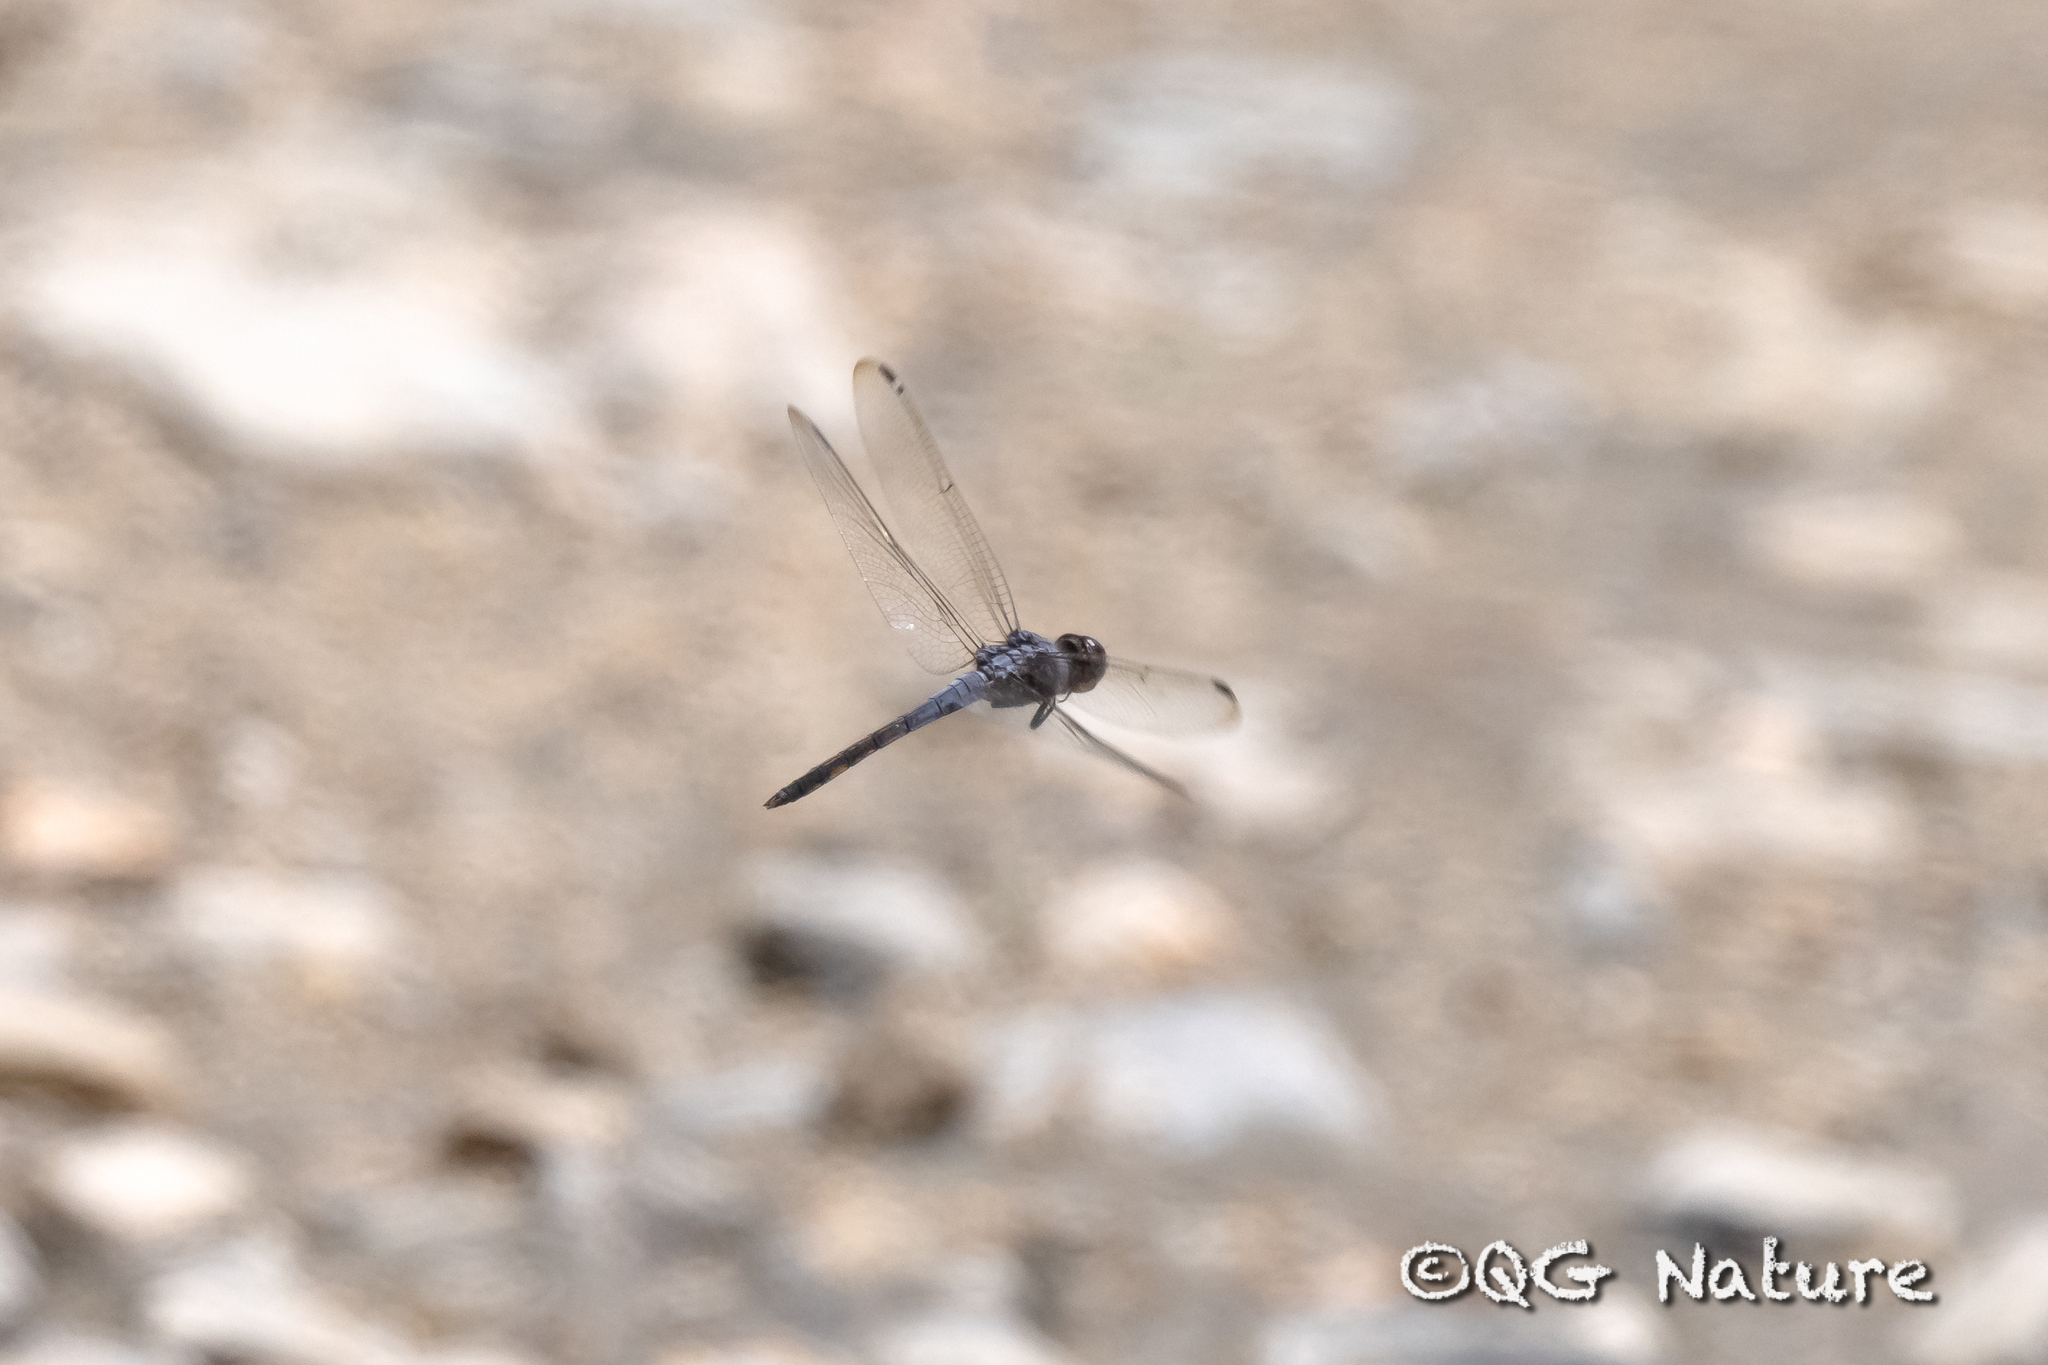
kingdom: Animalia
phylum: Arthropoda
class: Insecta
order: Odonata
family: Libellulidae
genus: Potamarcha
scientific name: Potamarcha congener
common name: Blue chaser
